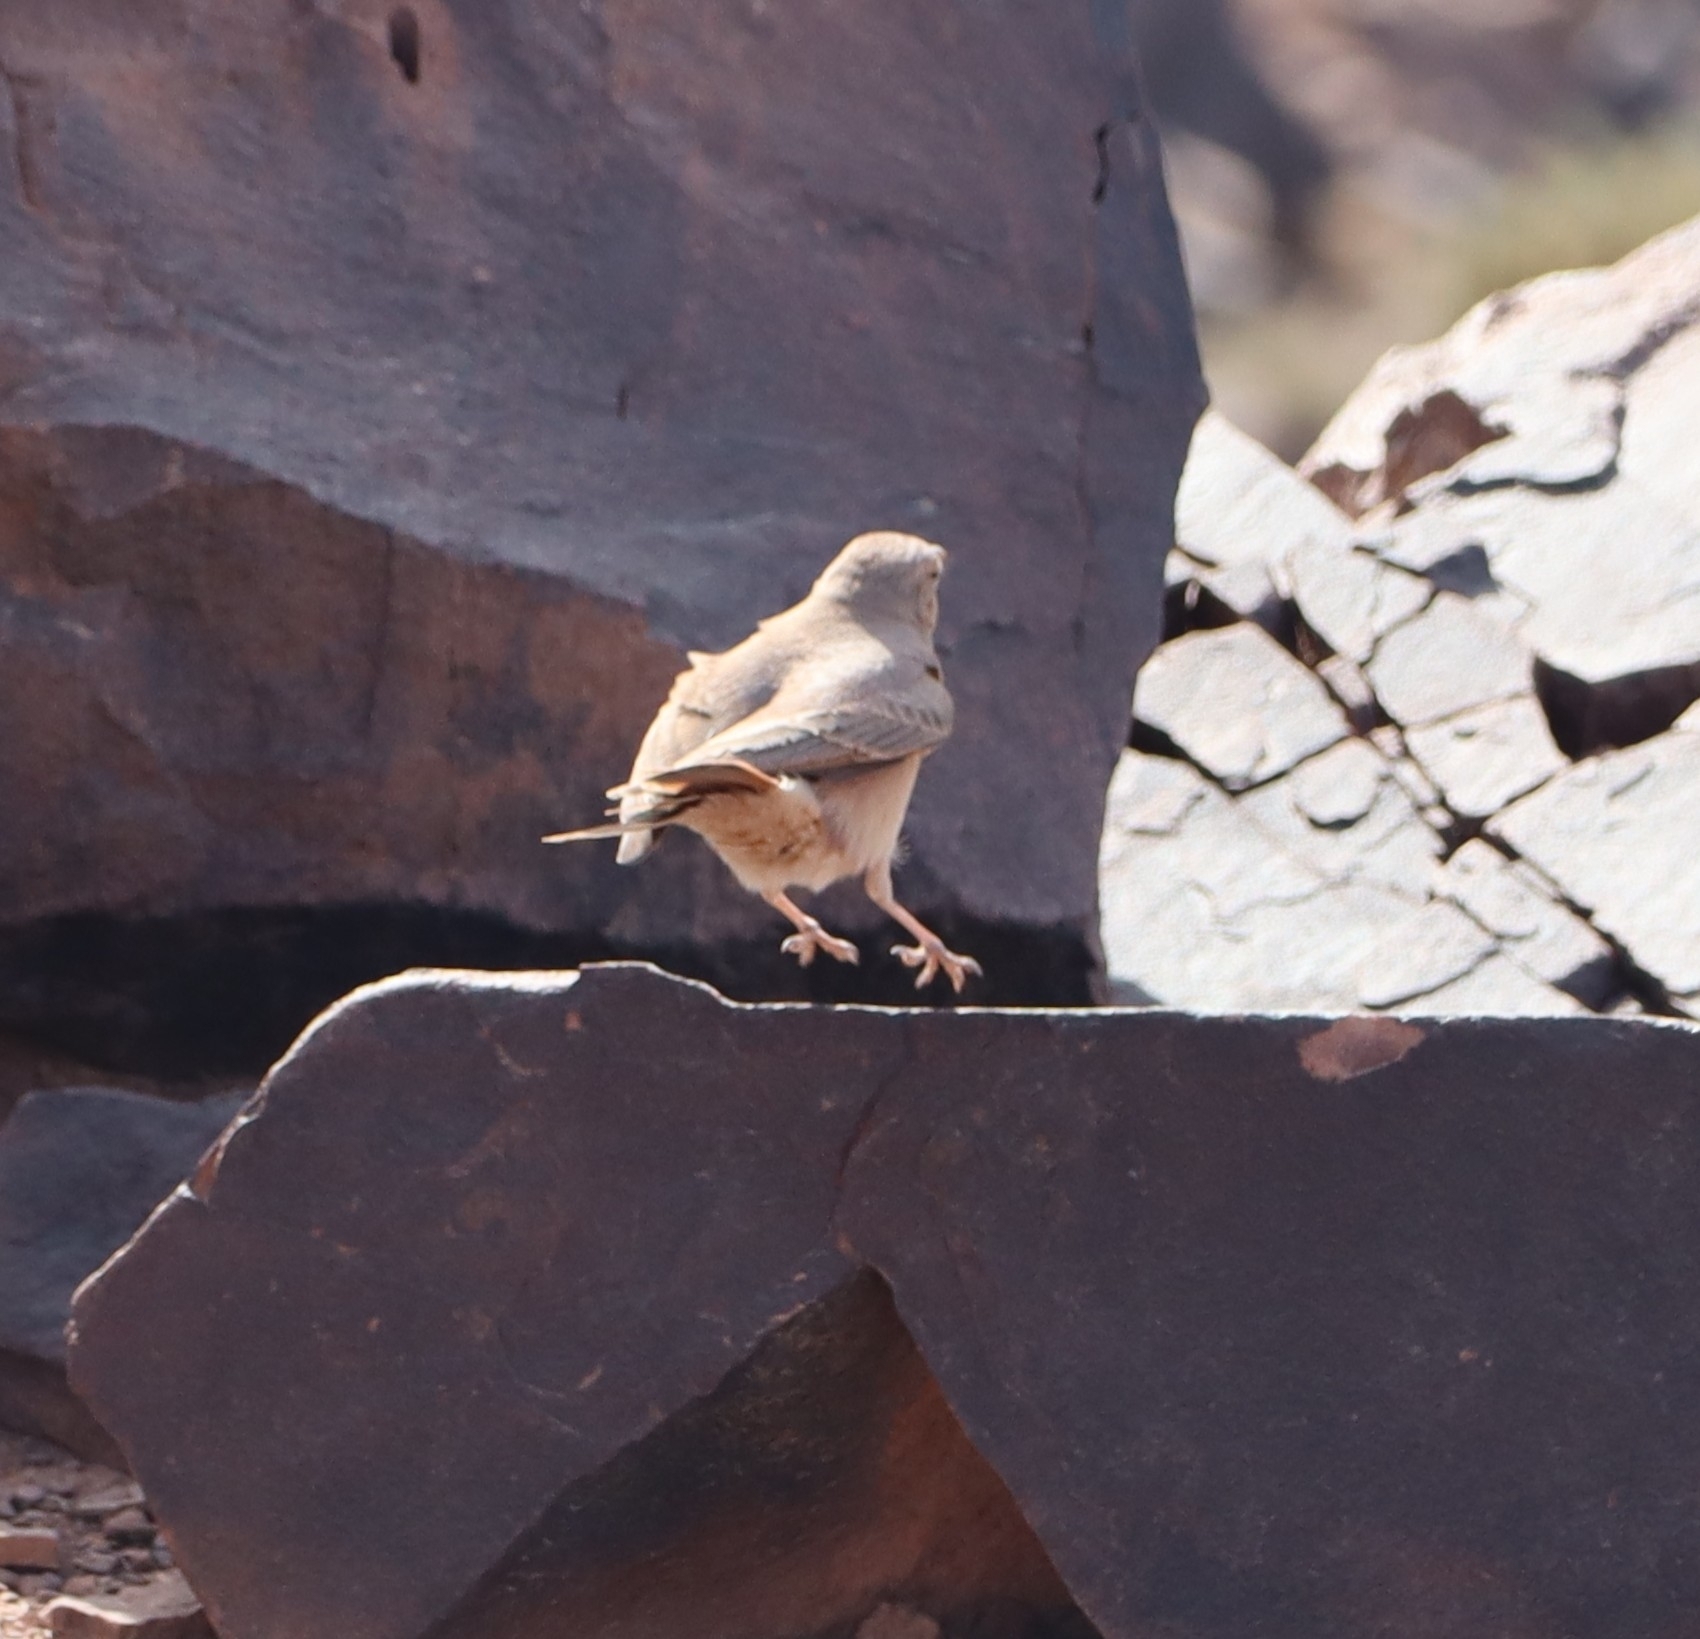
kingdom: Animalia
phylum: Chordata
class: Aves
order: Passeriformes
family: Alaudidae
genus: Ammomanes
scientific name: Ammomanes deserti
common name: Desert lark
